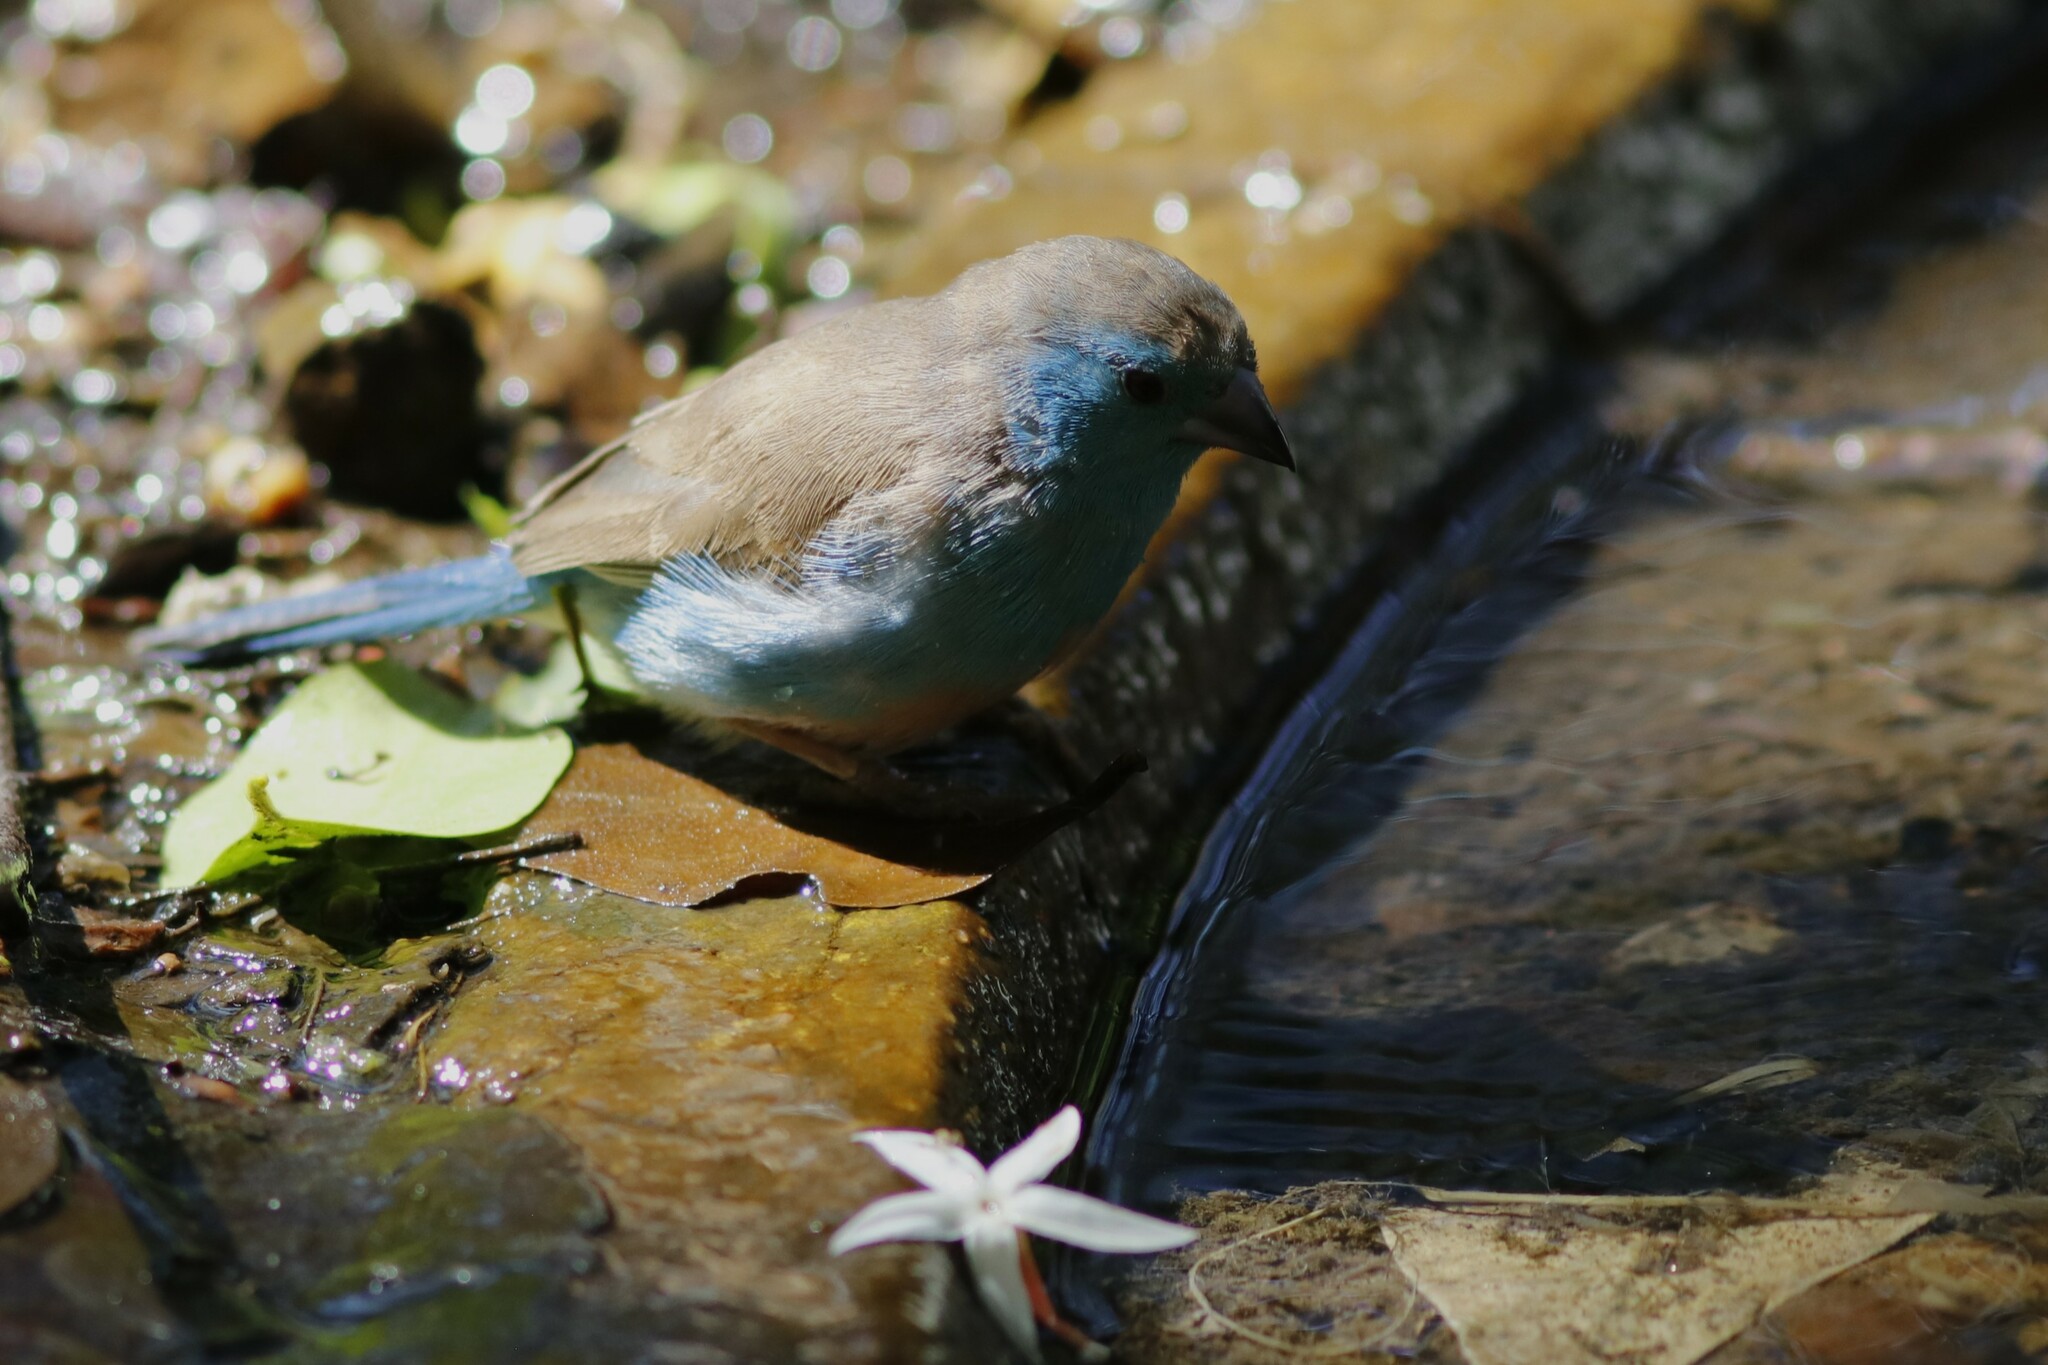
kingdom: Animalia
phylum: Chordata
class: Aves
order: Passeriformes
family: Estrildidae
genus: Uraeginthus
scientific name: Uraeginthus angolensis
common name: Blue waxbill
